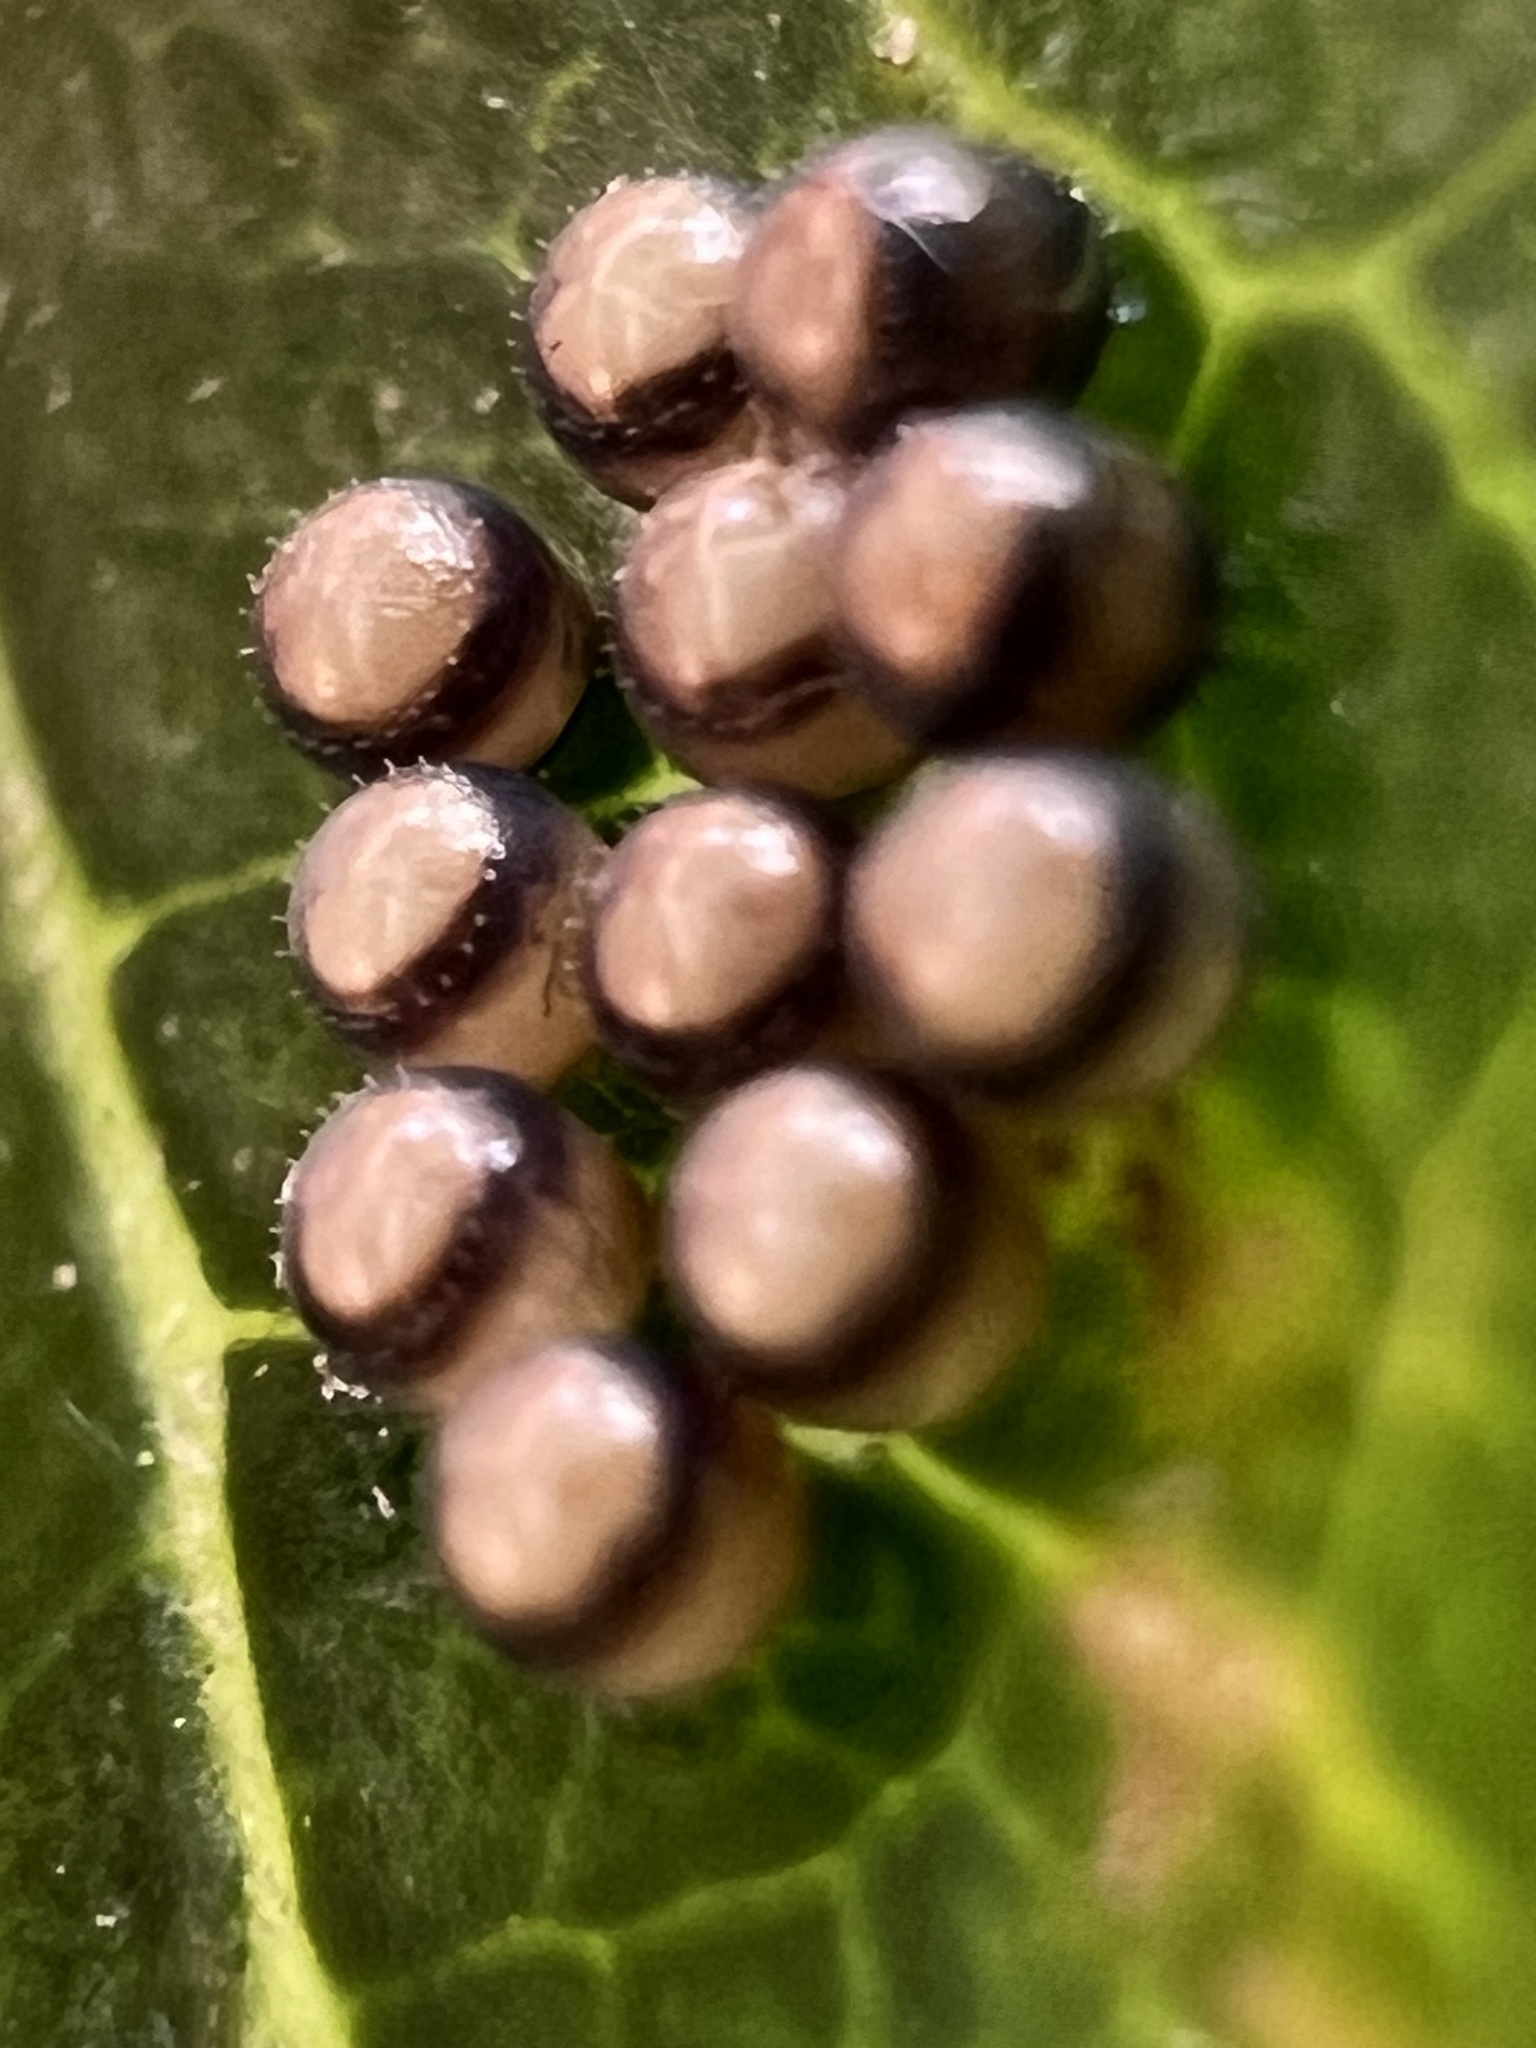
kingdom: Animalia
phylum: Arthropoda
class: Insecta
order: Hemiptera
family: Pentatomidae
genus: Cermatulus
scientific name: Cermatulus nasalis
